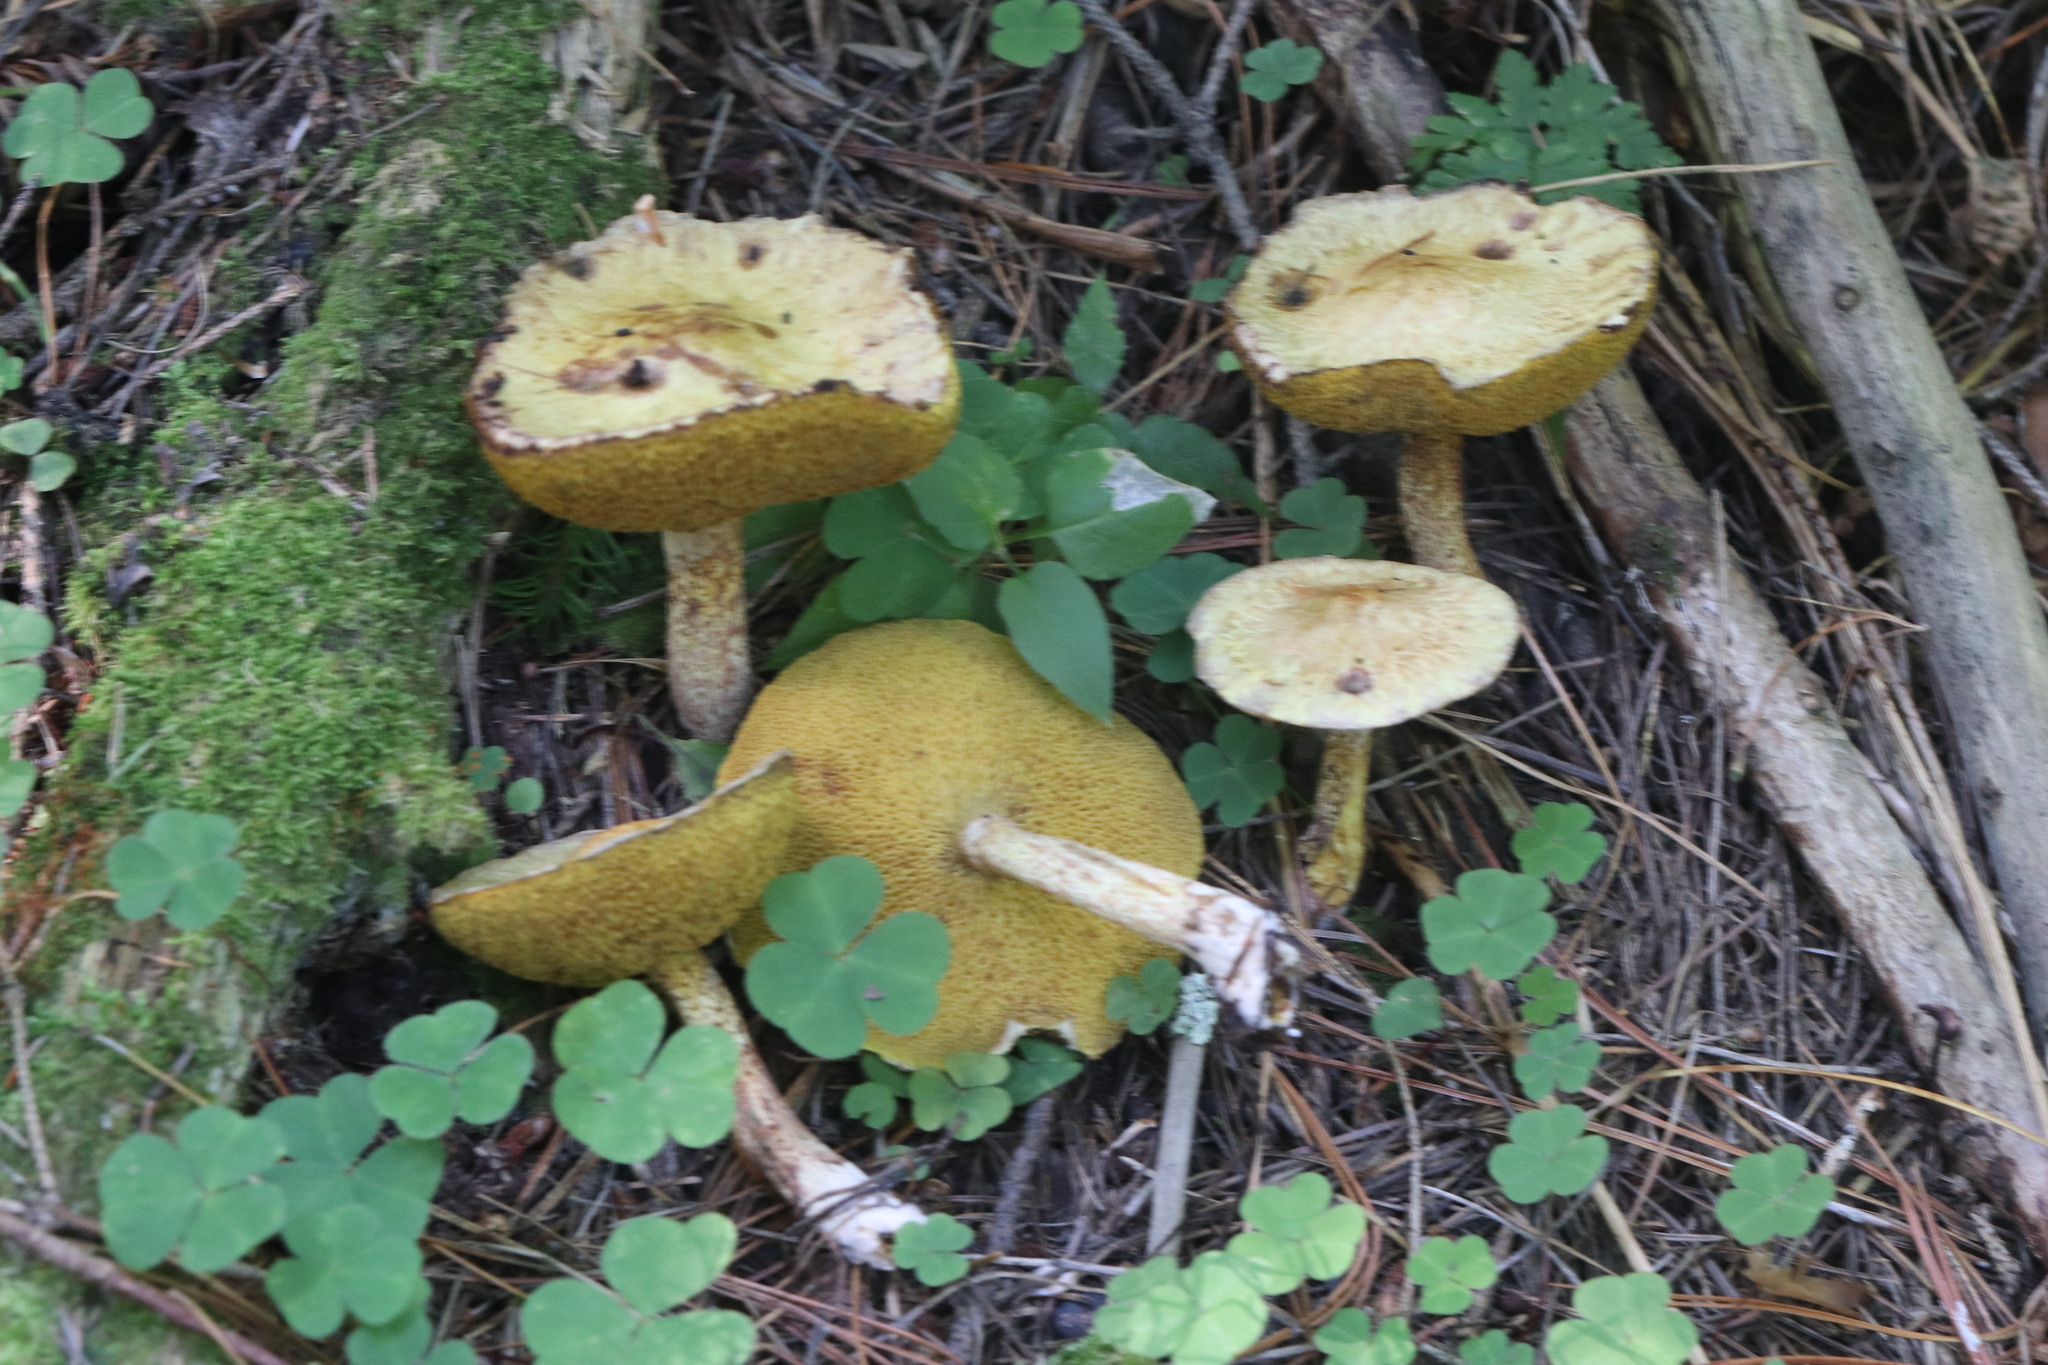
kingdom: Fungi
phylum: Basidiomycota
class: Agaricomycetes
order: Boletales
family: Suillaceae
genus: Suillus
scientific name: Suillus americanus
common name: Chicken fat mushroom
